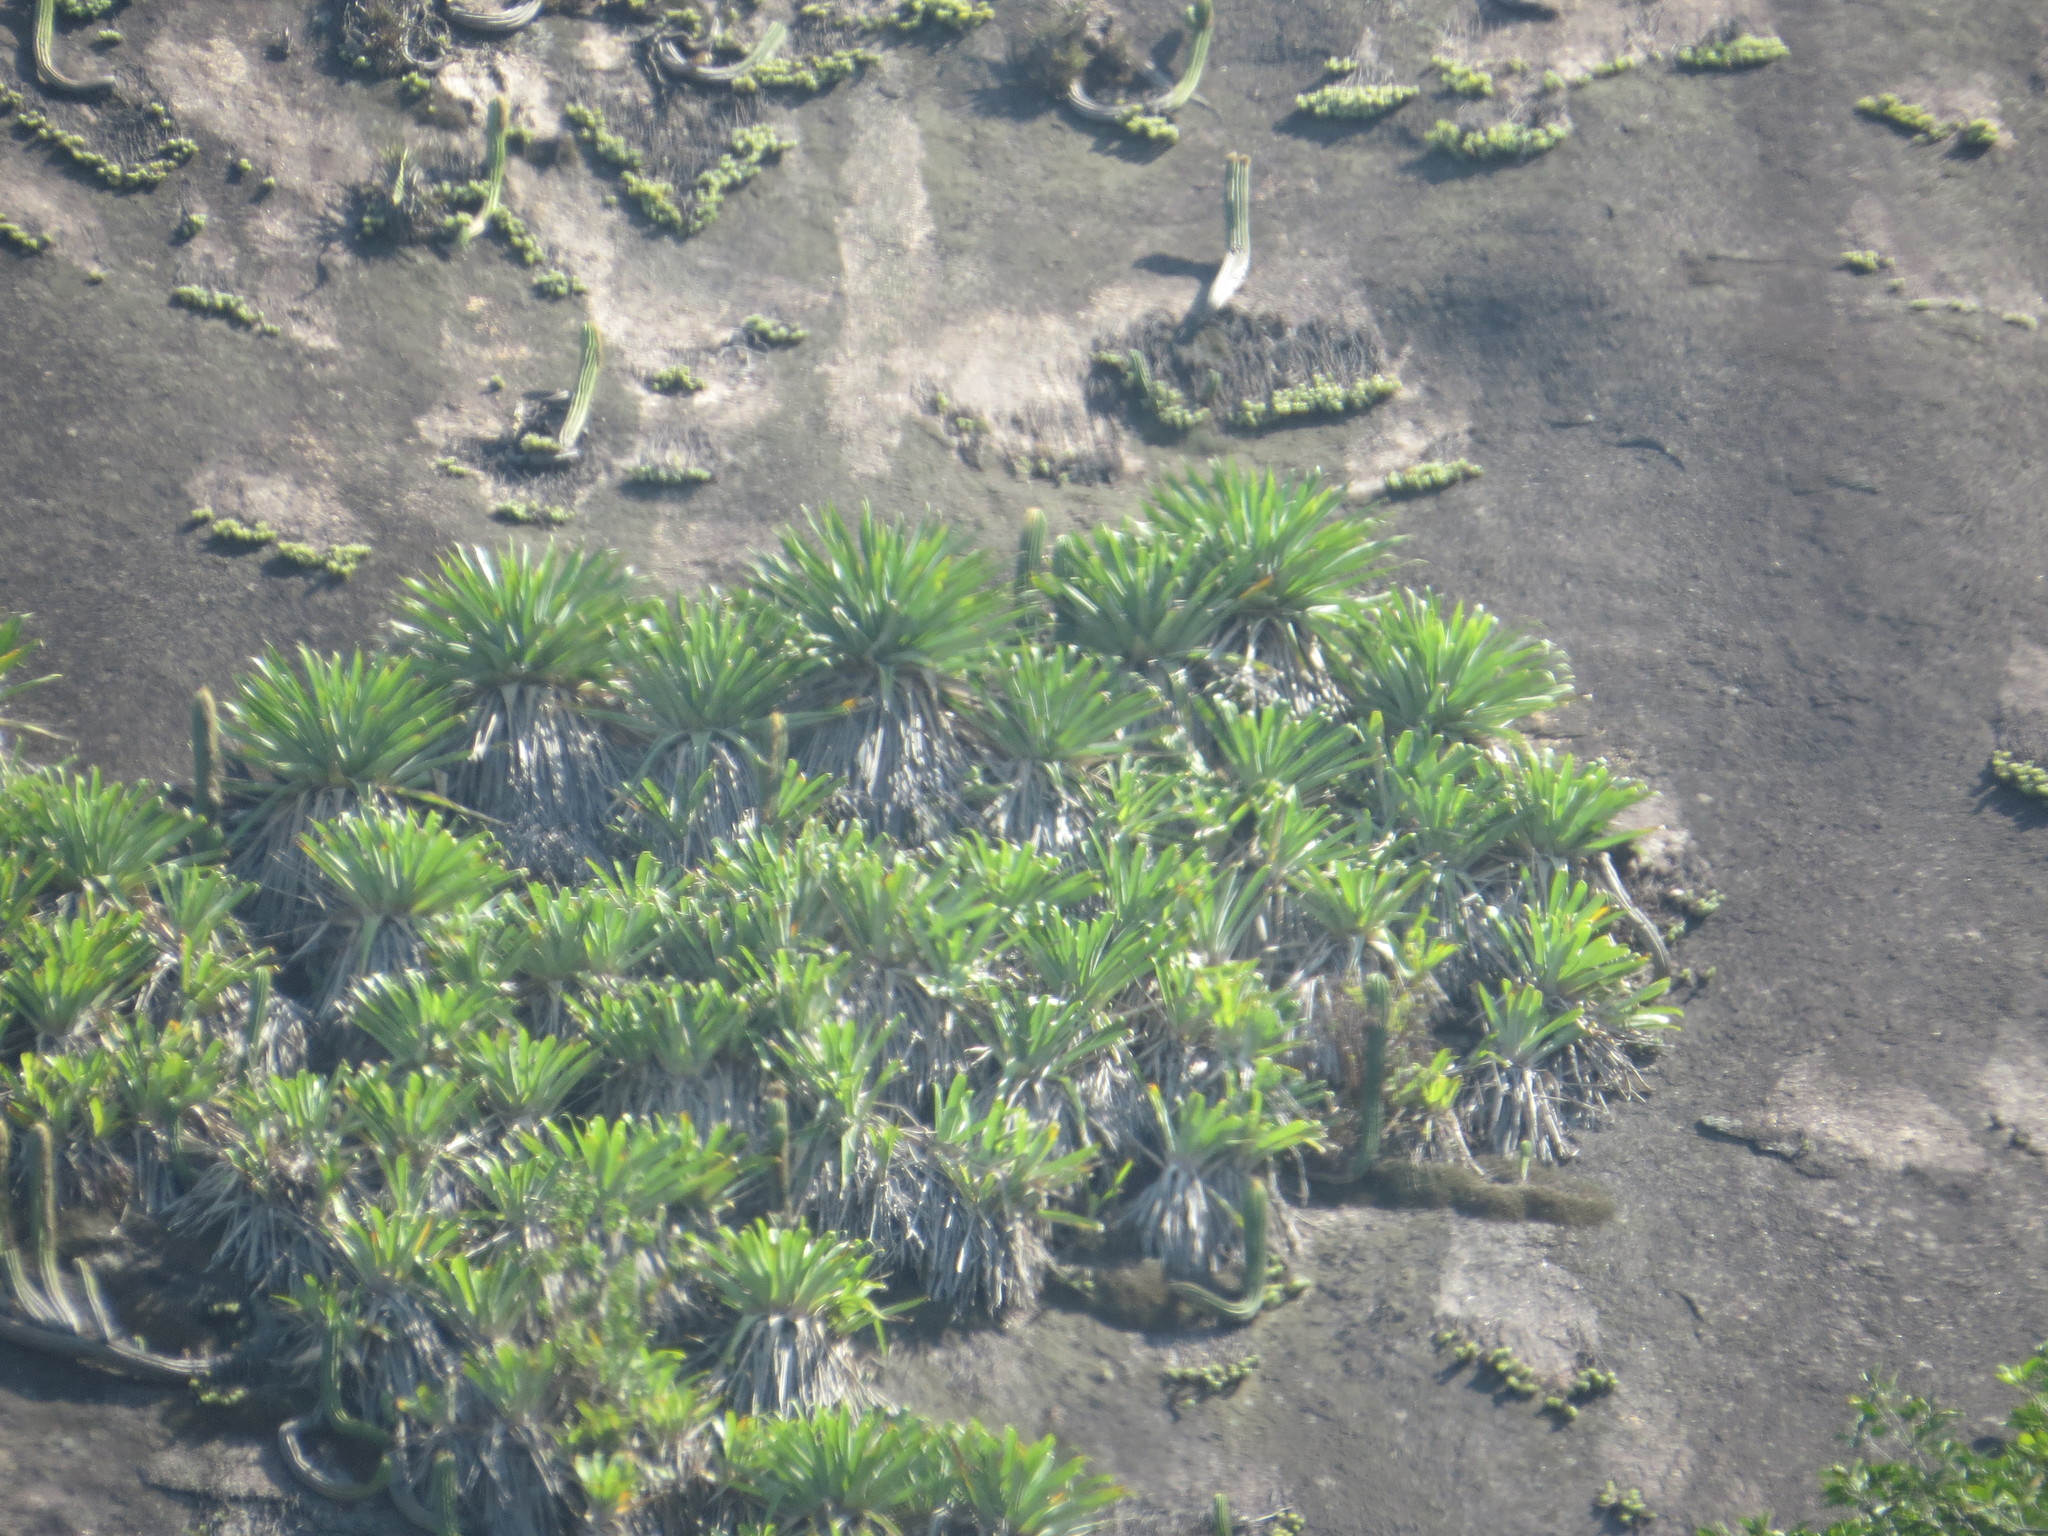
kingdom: Plantae
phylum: Tracheophyta
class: Liliopsida
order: Poales
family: Bromeliaceae
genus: Alcantarea
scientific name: Alcantarea glaziouana
